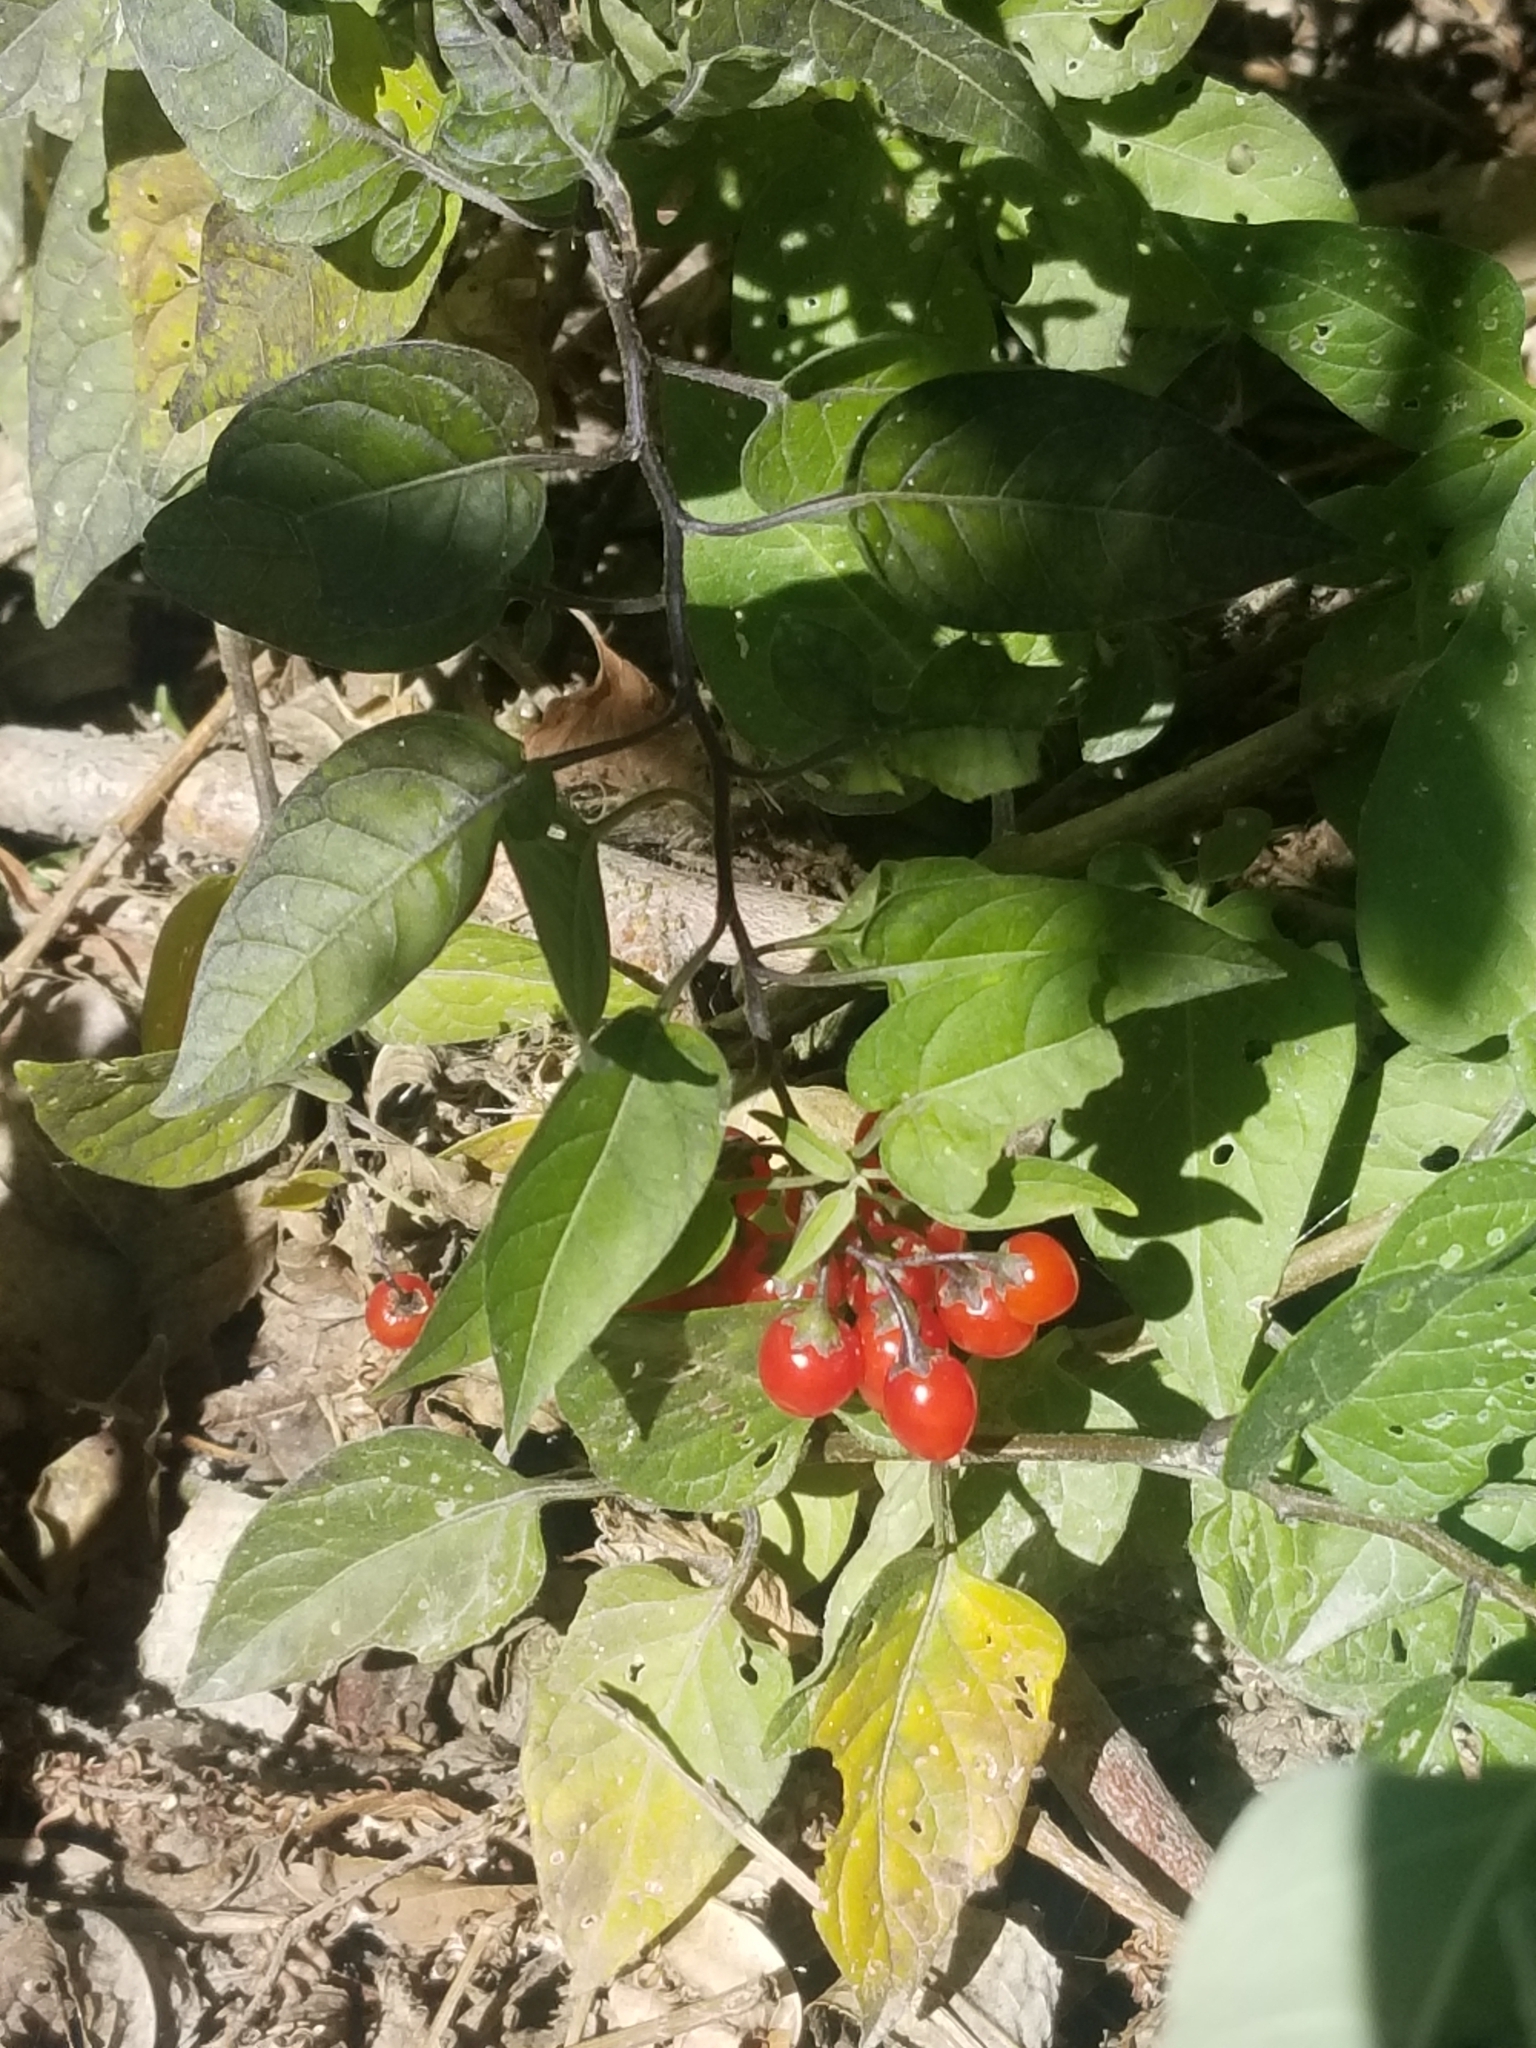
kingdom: Plantae
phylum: Tracheophyta
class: Magnoliopsida
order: Solanales
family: Solanaceae
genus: Solanum
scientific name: Solanum dulcamara
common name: Climbing nightshade
